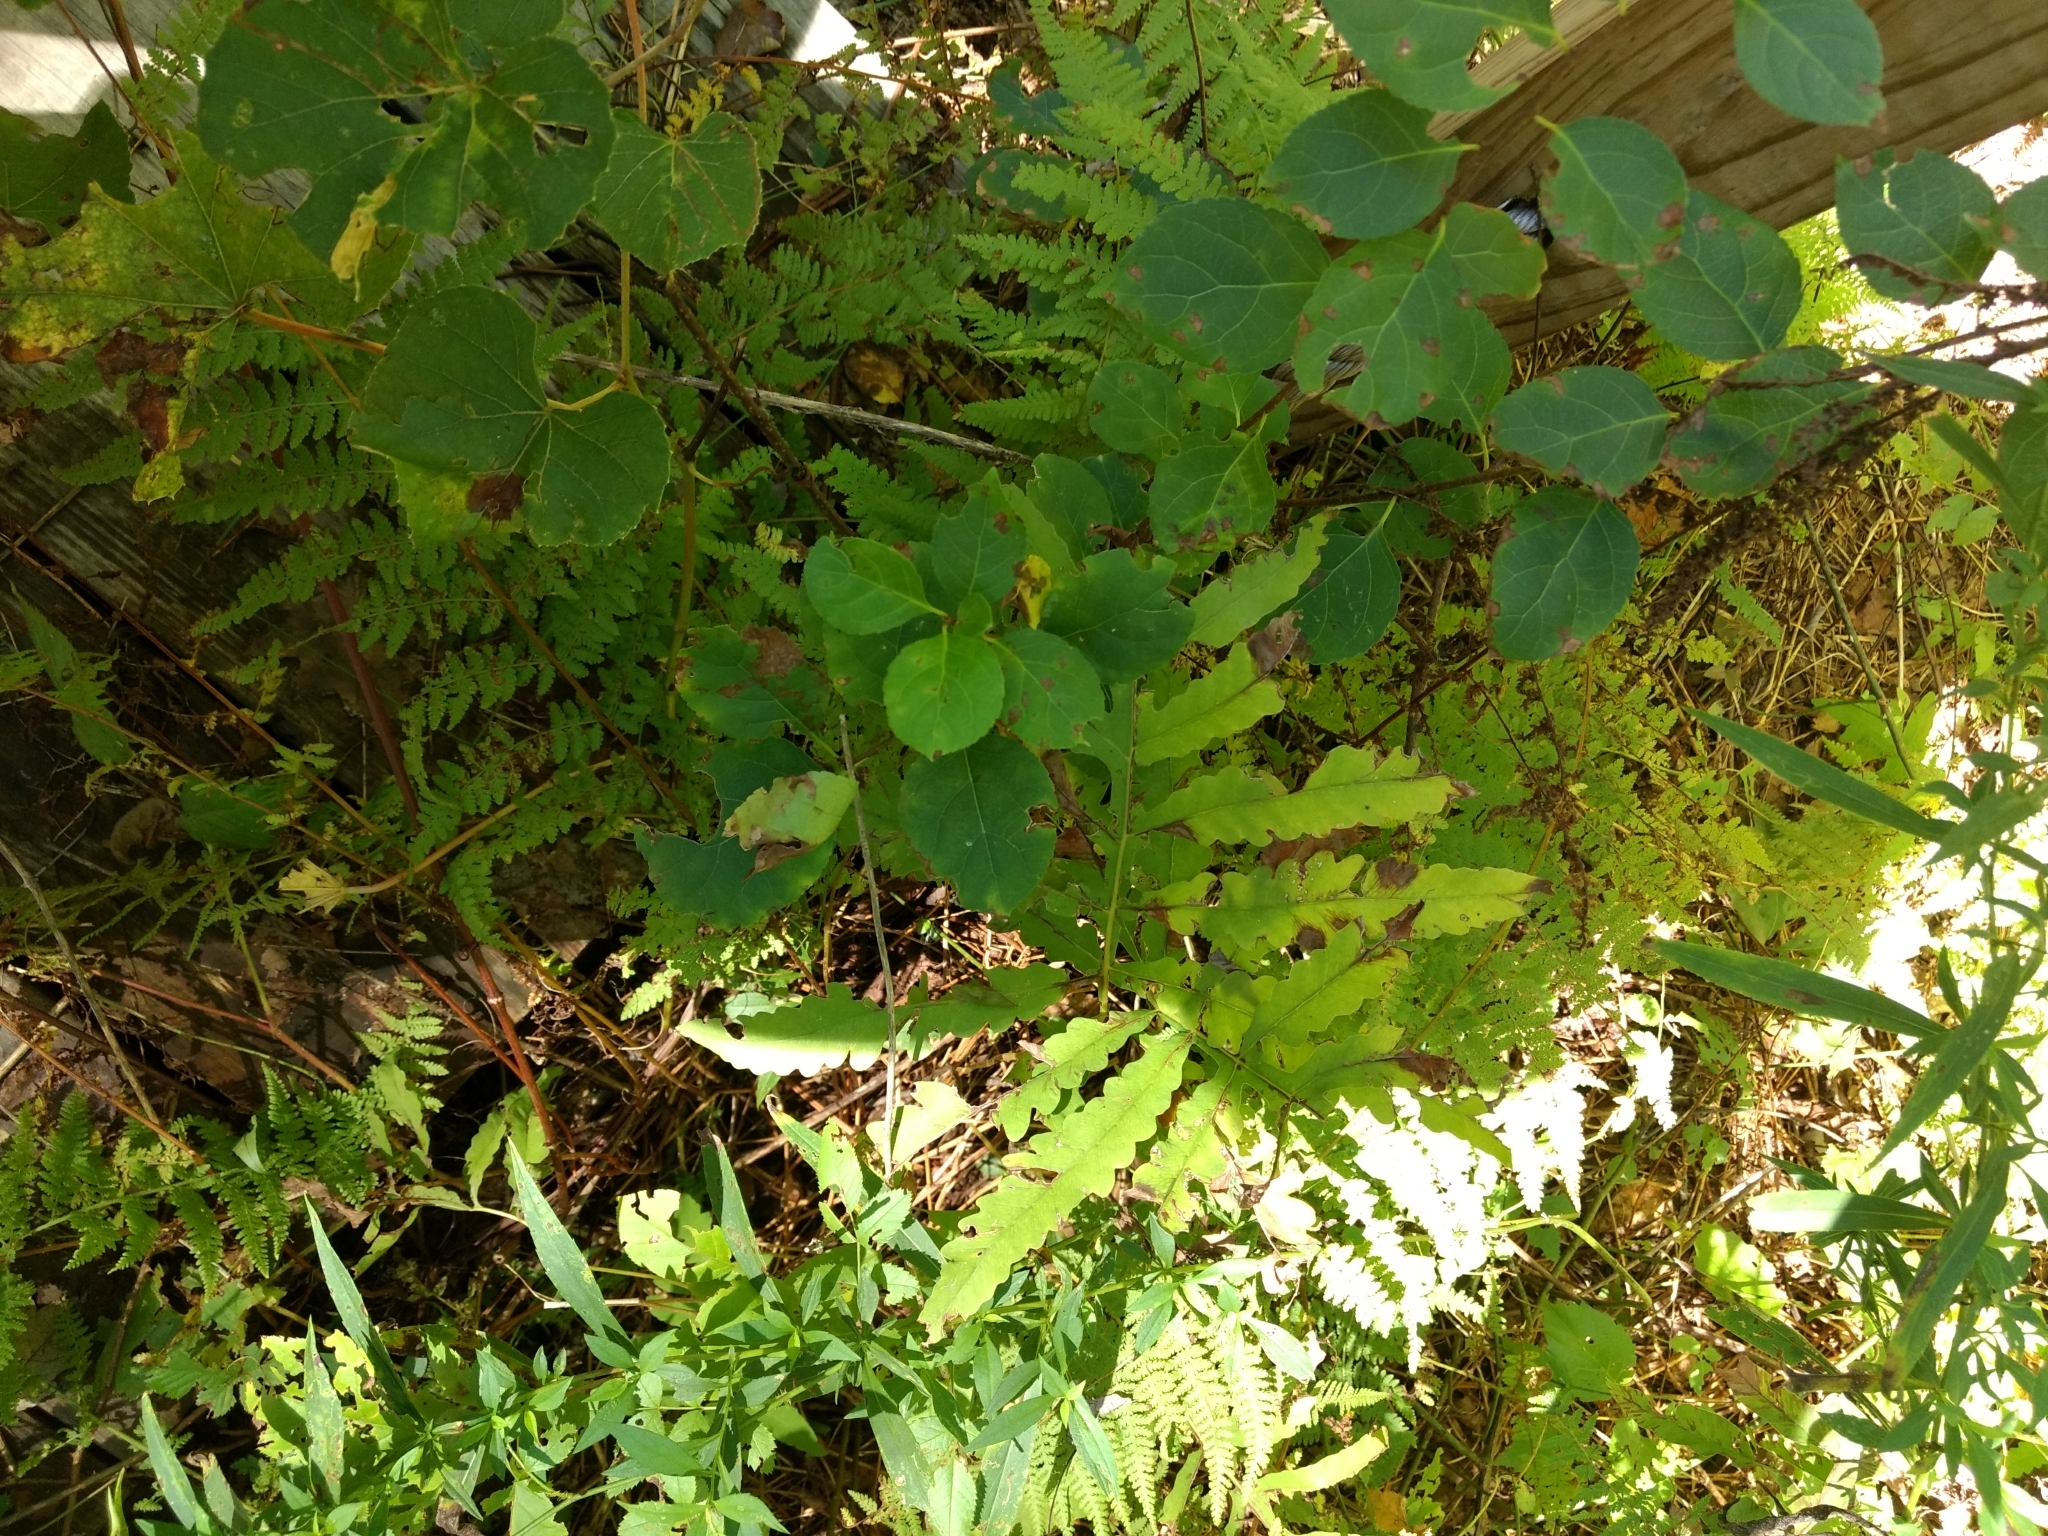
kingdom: Plantae
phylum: Tracheophyta
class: Polypodiopsida
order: Polypodiales
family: Onocleaceae
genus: Onoclea
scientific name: Onoclea sensibilis
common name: Sensitive fern
